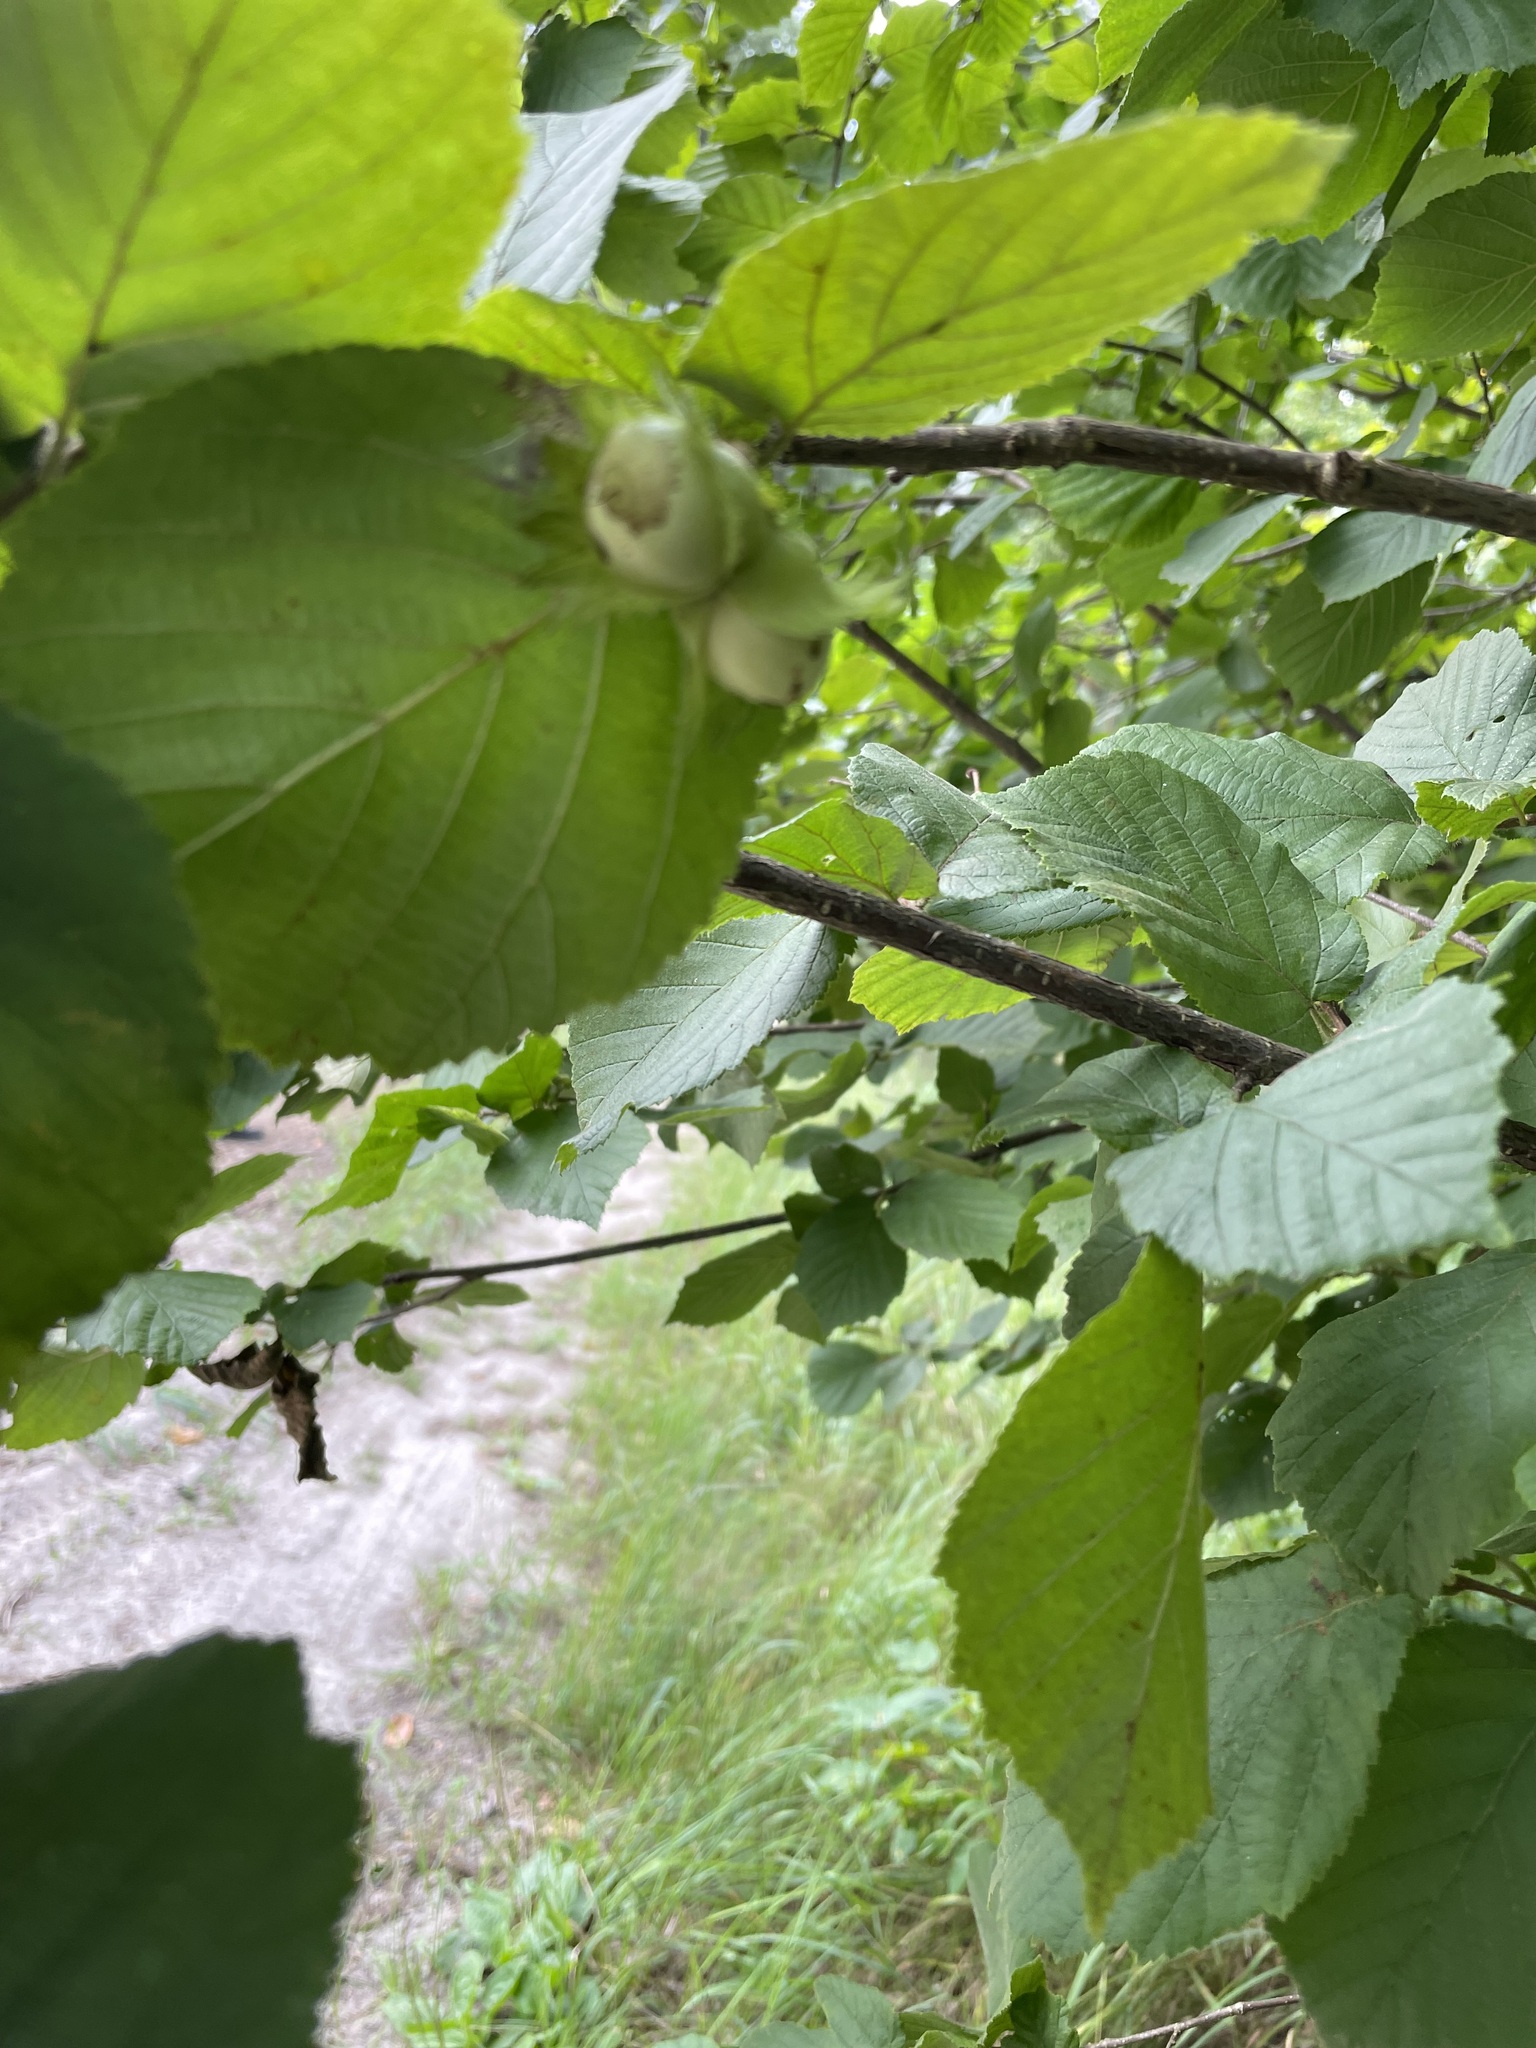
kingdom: Plantae
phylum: Tracheophyta
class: Magnoliopsida
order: Fagales
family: Betulaceae
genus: Corylus
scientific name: Corylus avellana
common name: European hazel
